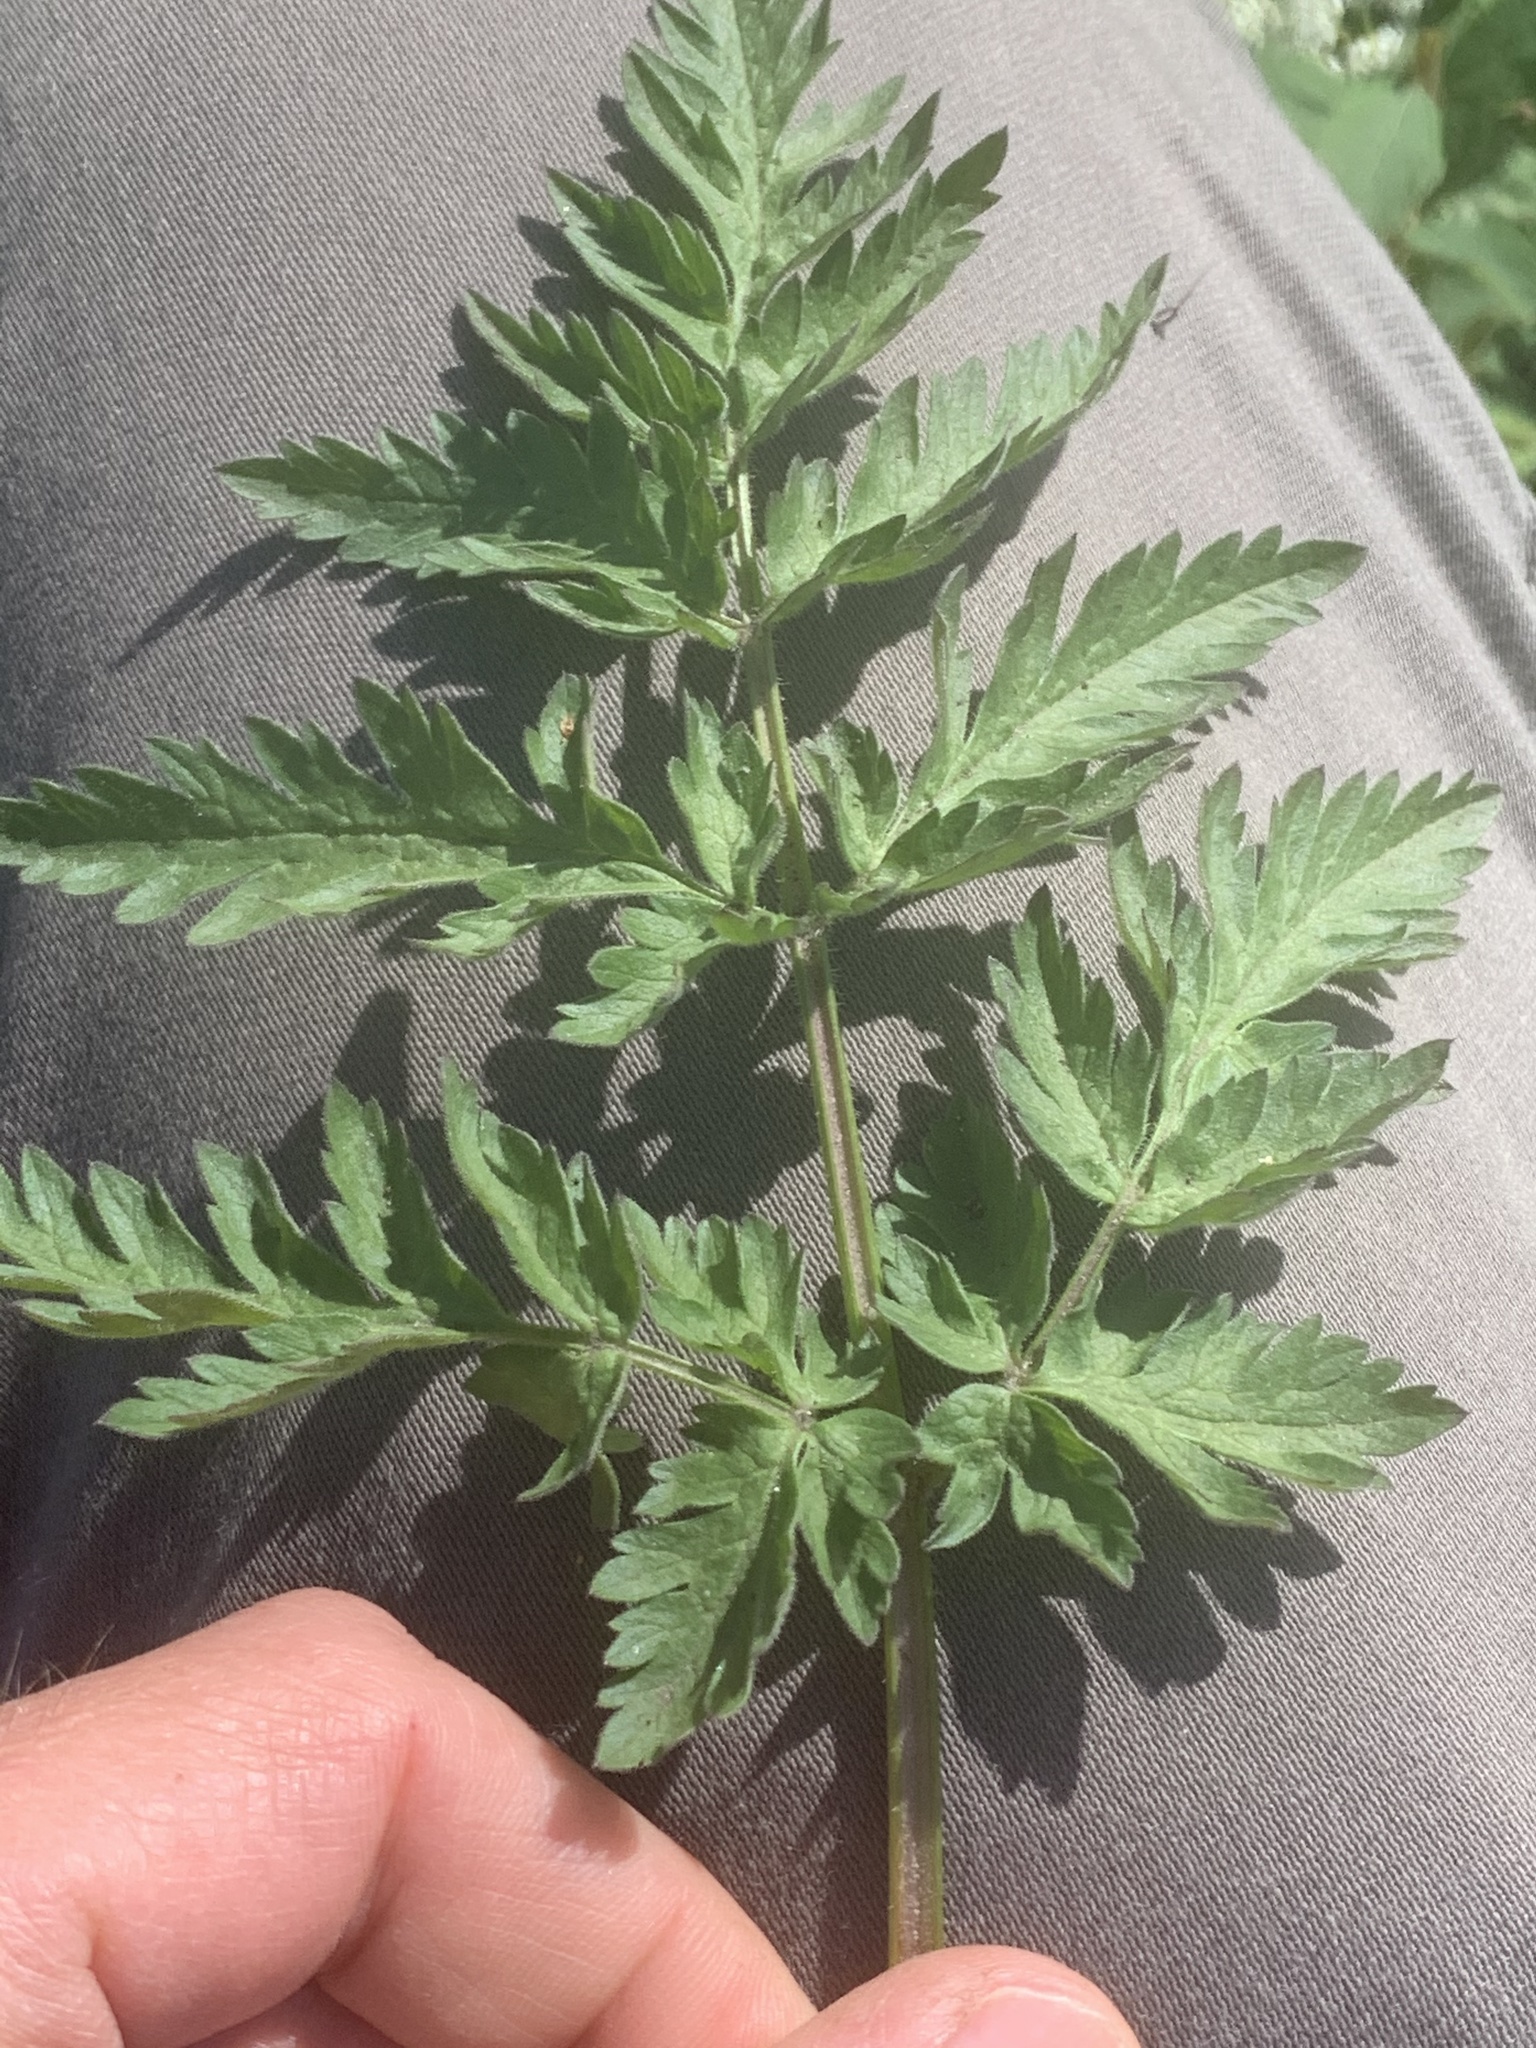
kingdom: Plantae
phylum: Tracheophyta
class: Magnoliopsida
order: Apiales
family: Apiaceae
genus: Anthriscus
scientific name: Anthriscus sylvestris
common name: Cow parsley
